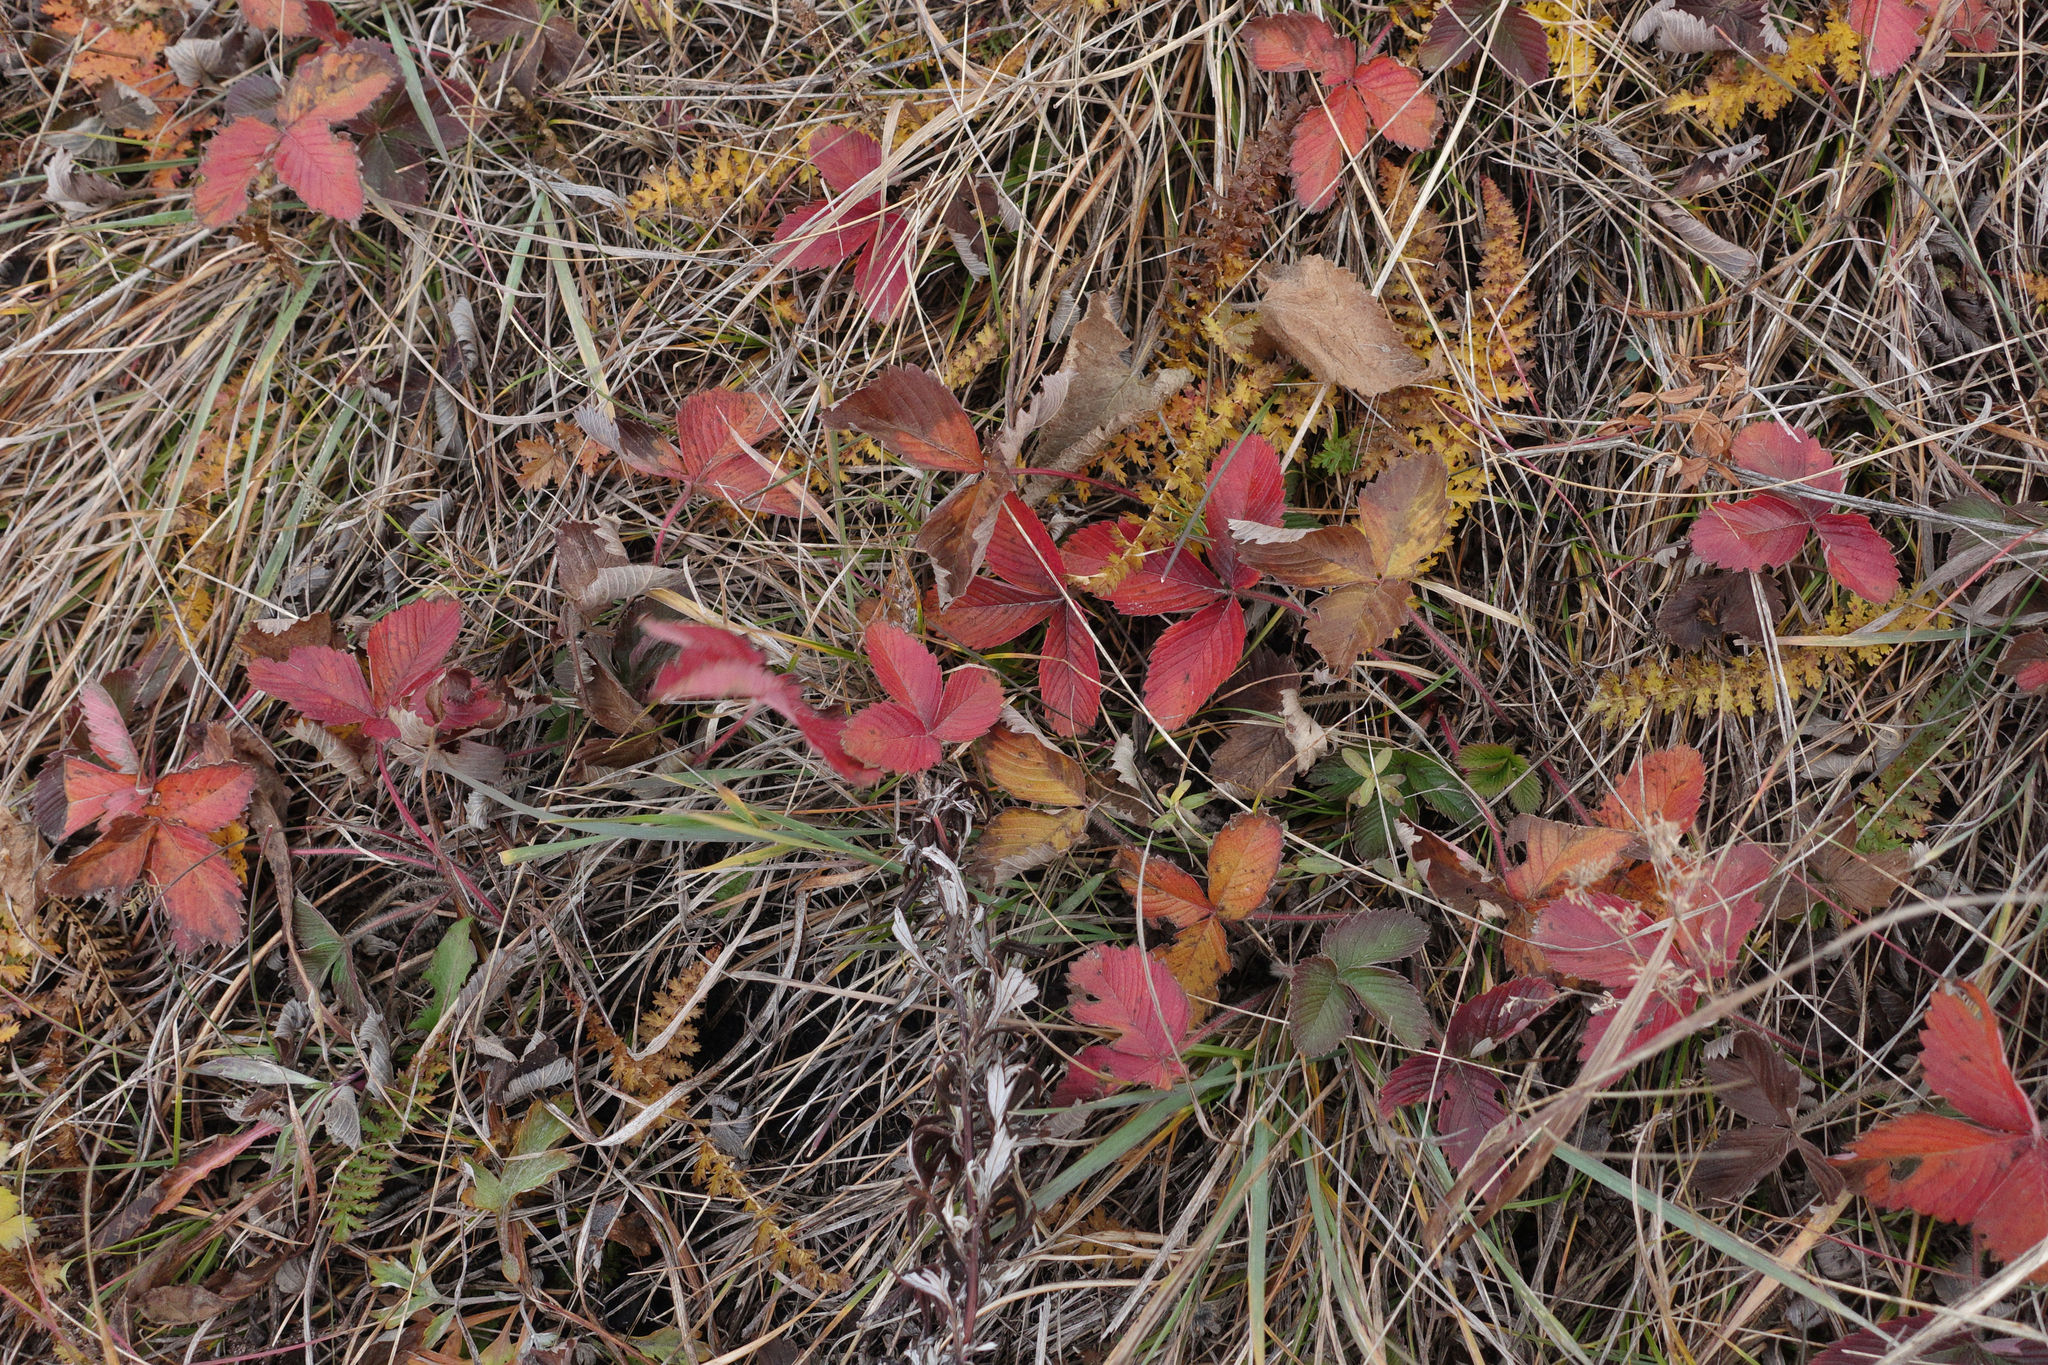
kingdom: Plantae
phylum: Tracheophyta
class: Magnoliopsida
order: Rosales
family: Rosaceae
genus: Fragaria
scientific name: Fragaria viridis
